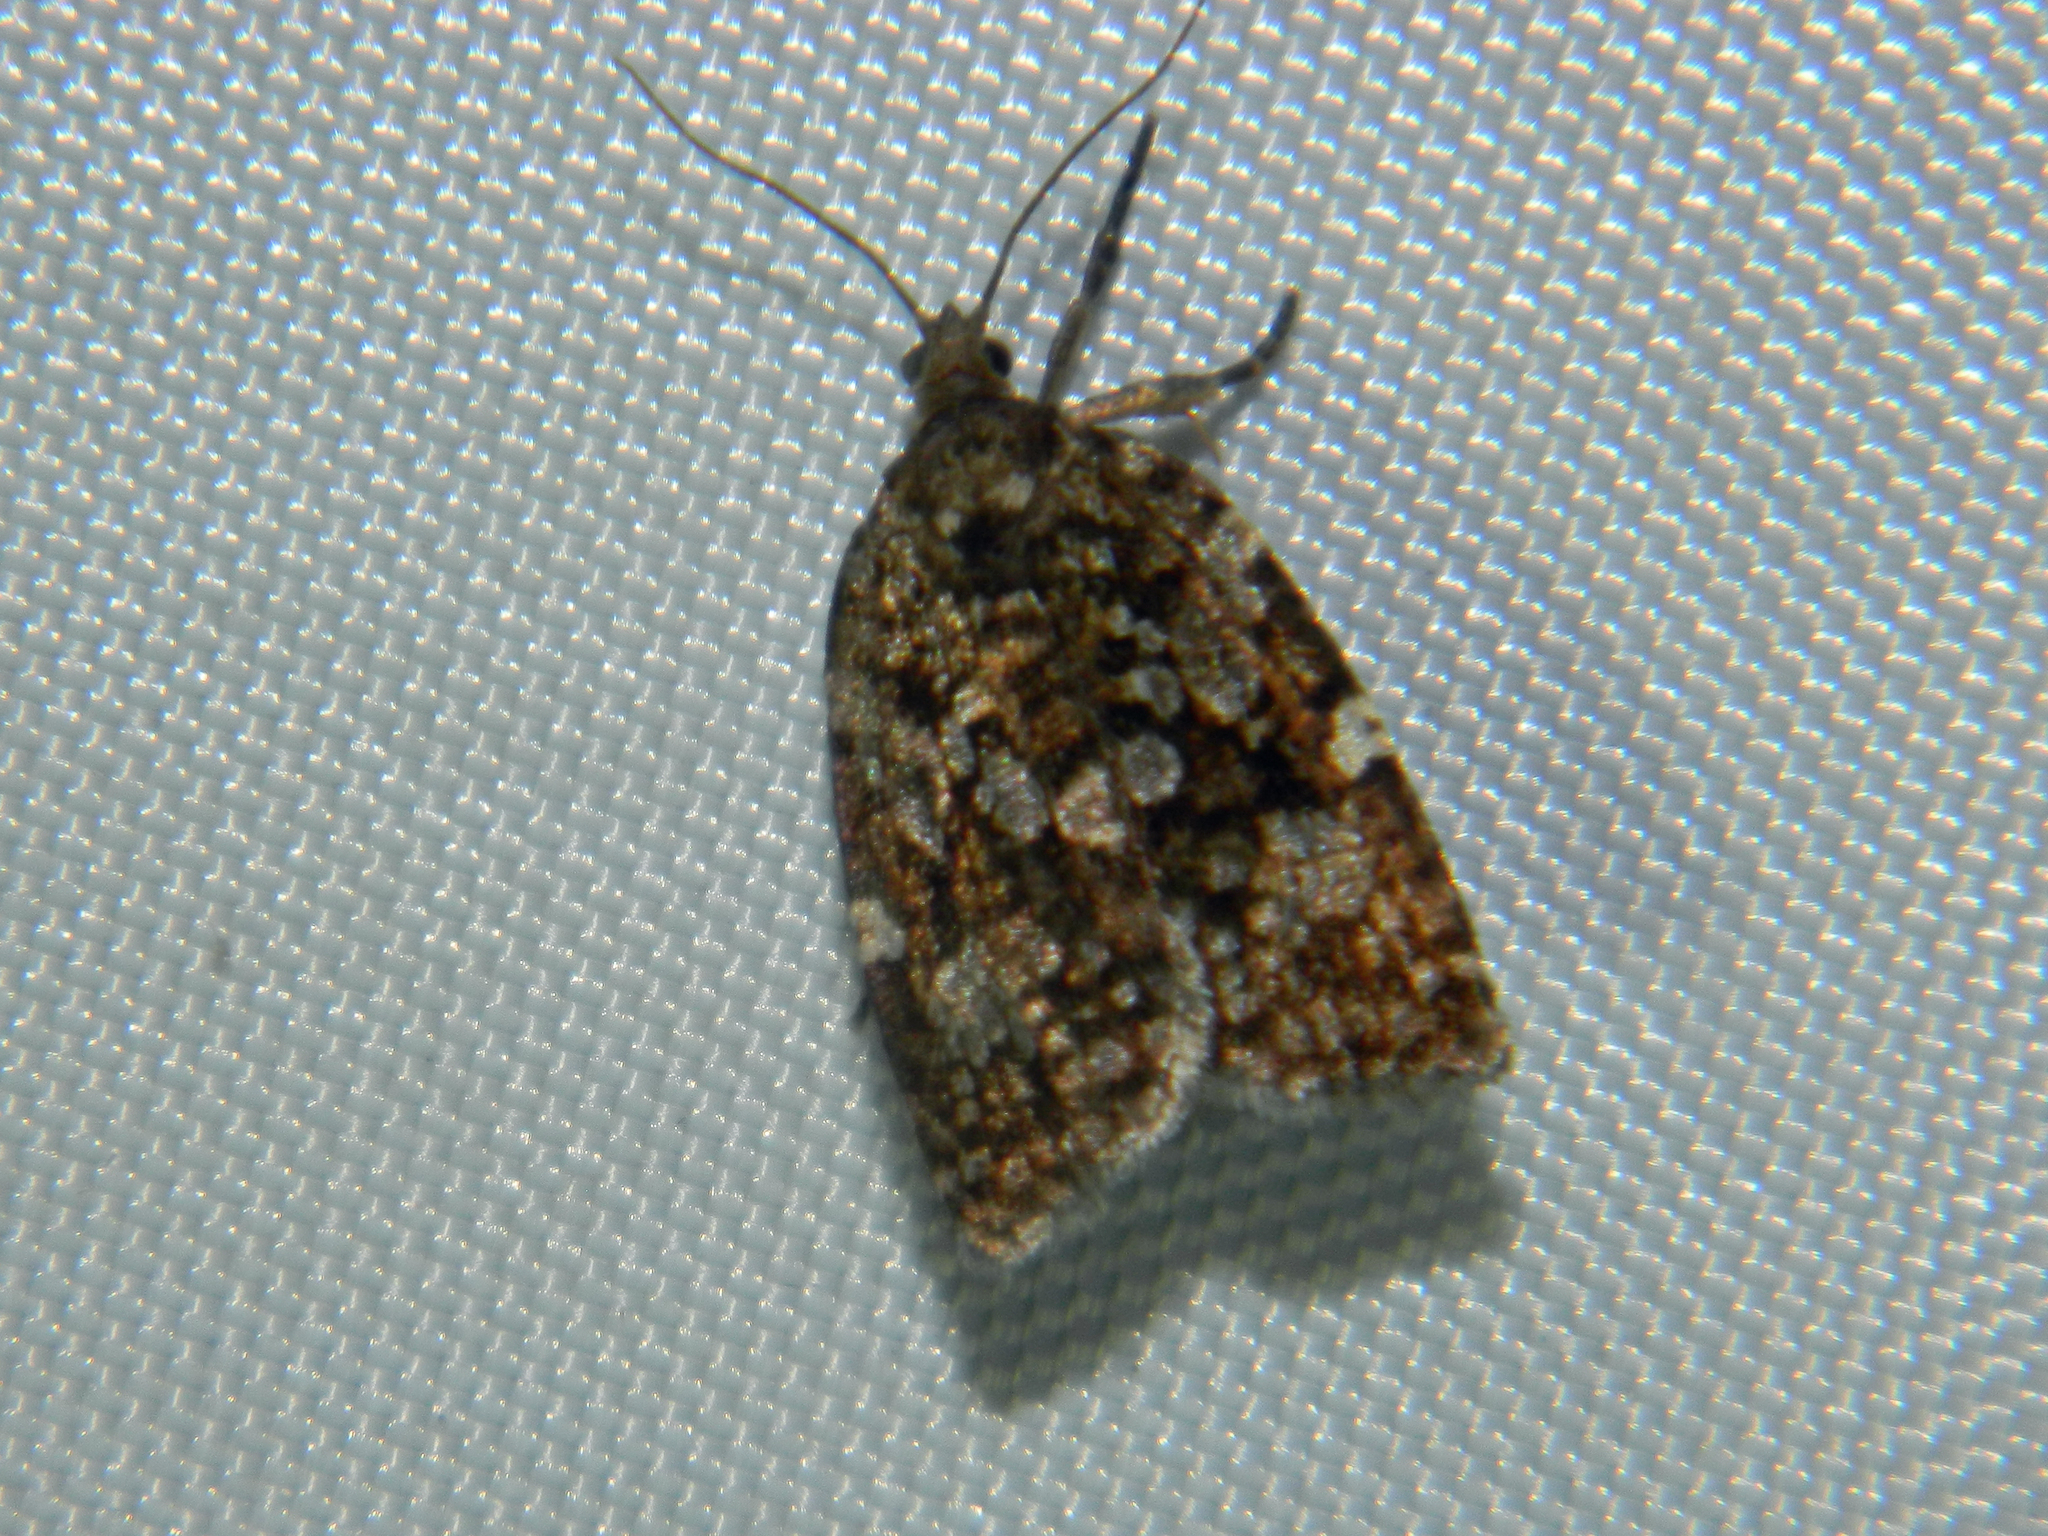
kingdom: Animalia
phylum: Arthropoda
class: Insecta
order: Lepidoptera
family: Tortricidae
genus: Choristoneura
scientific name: Choristoneura fumiferana
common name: Spruce budworm
